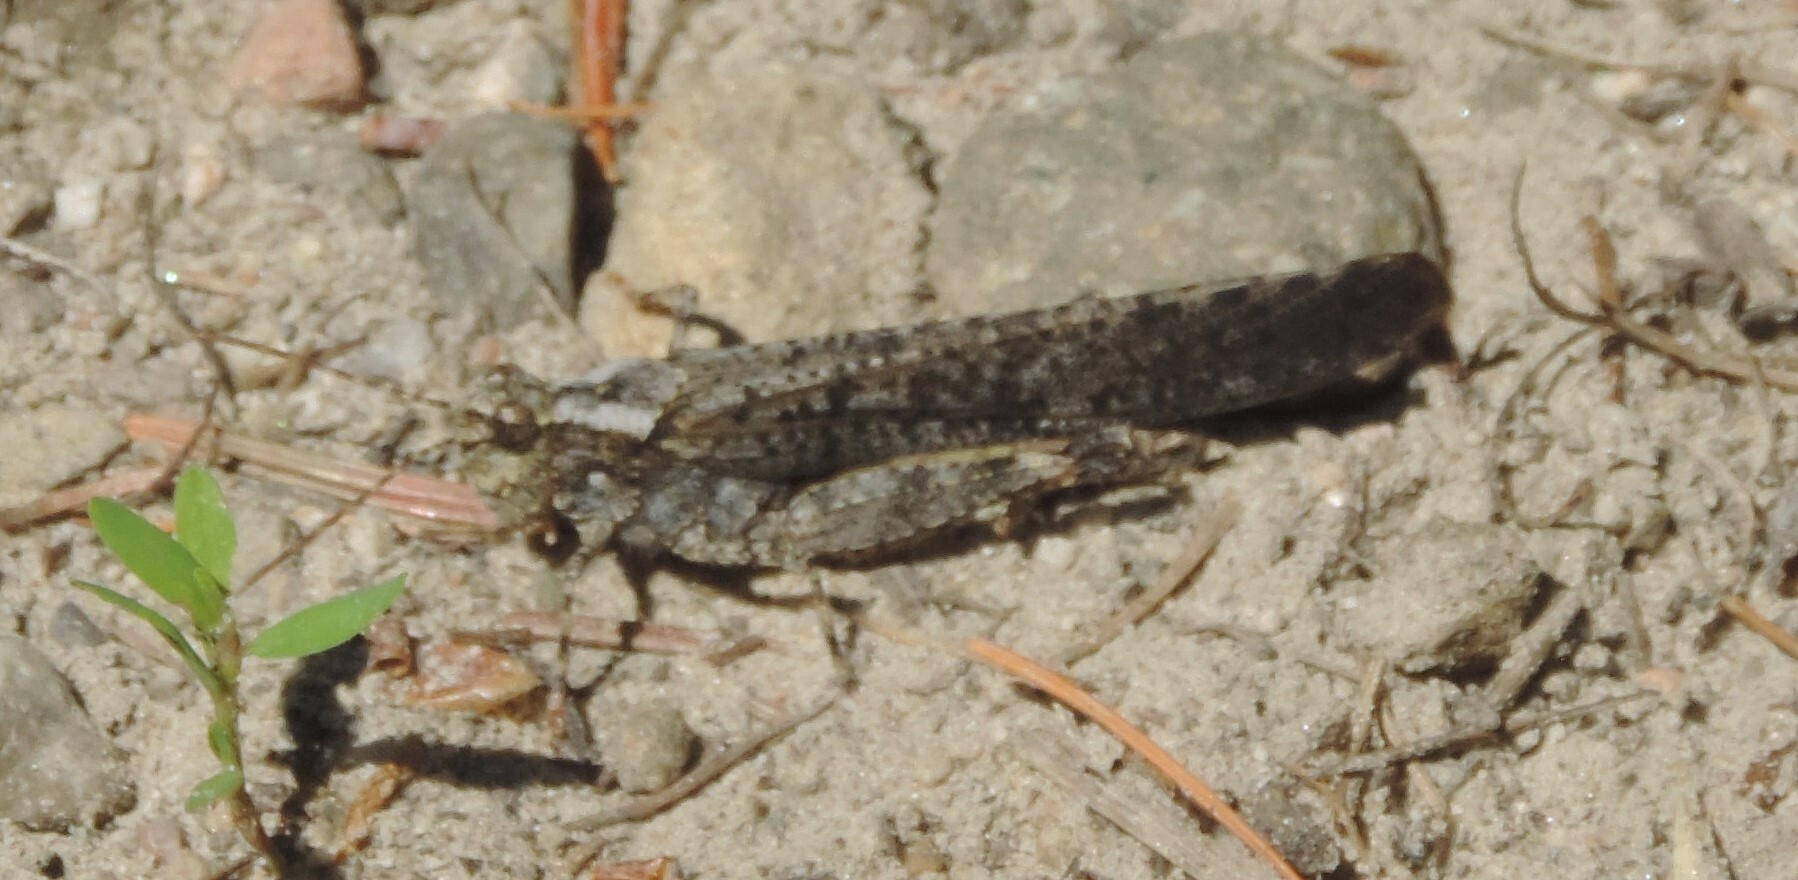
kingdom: Animalia
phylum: Arthropoda
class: Insecta
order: Orthoptera
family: Acrididae
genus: Trimerotropis
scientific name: Trimerotropis verruculata
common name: Crackling forest grasshopper
